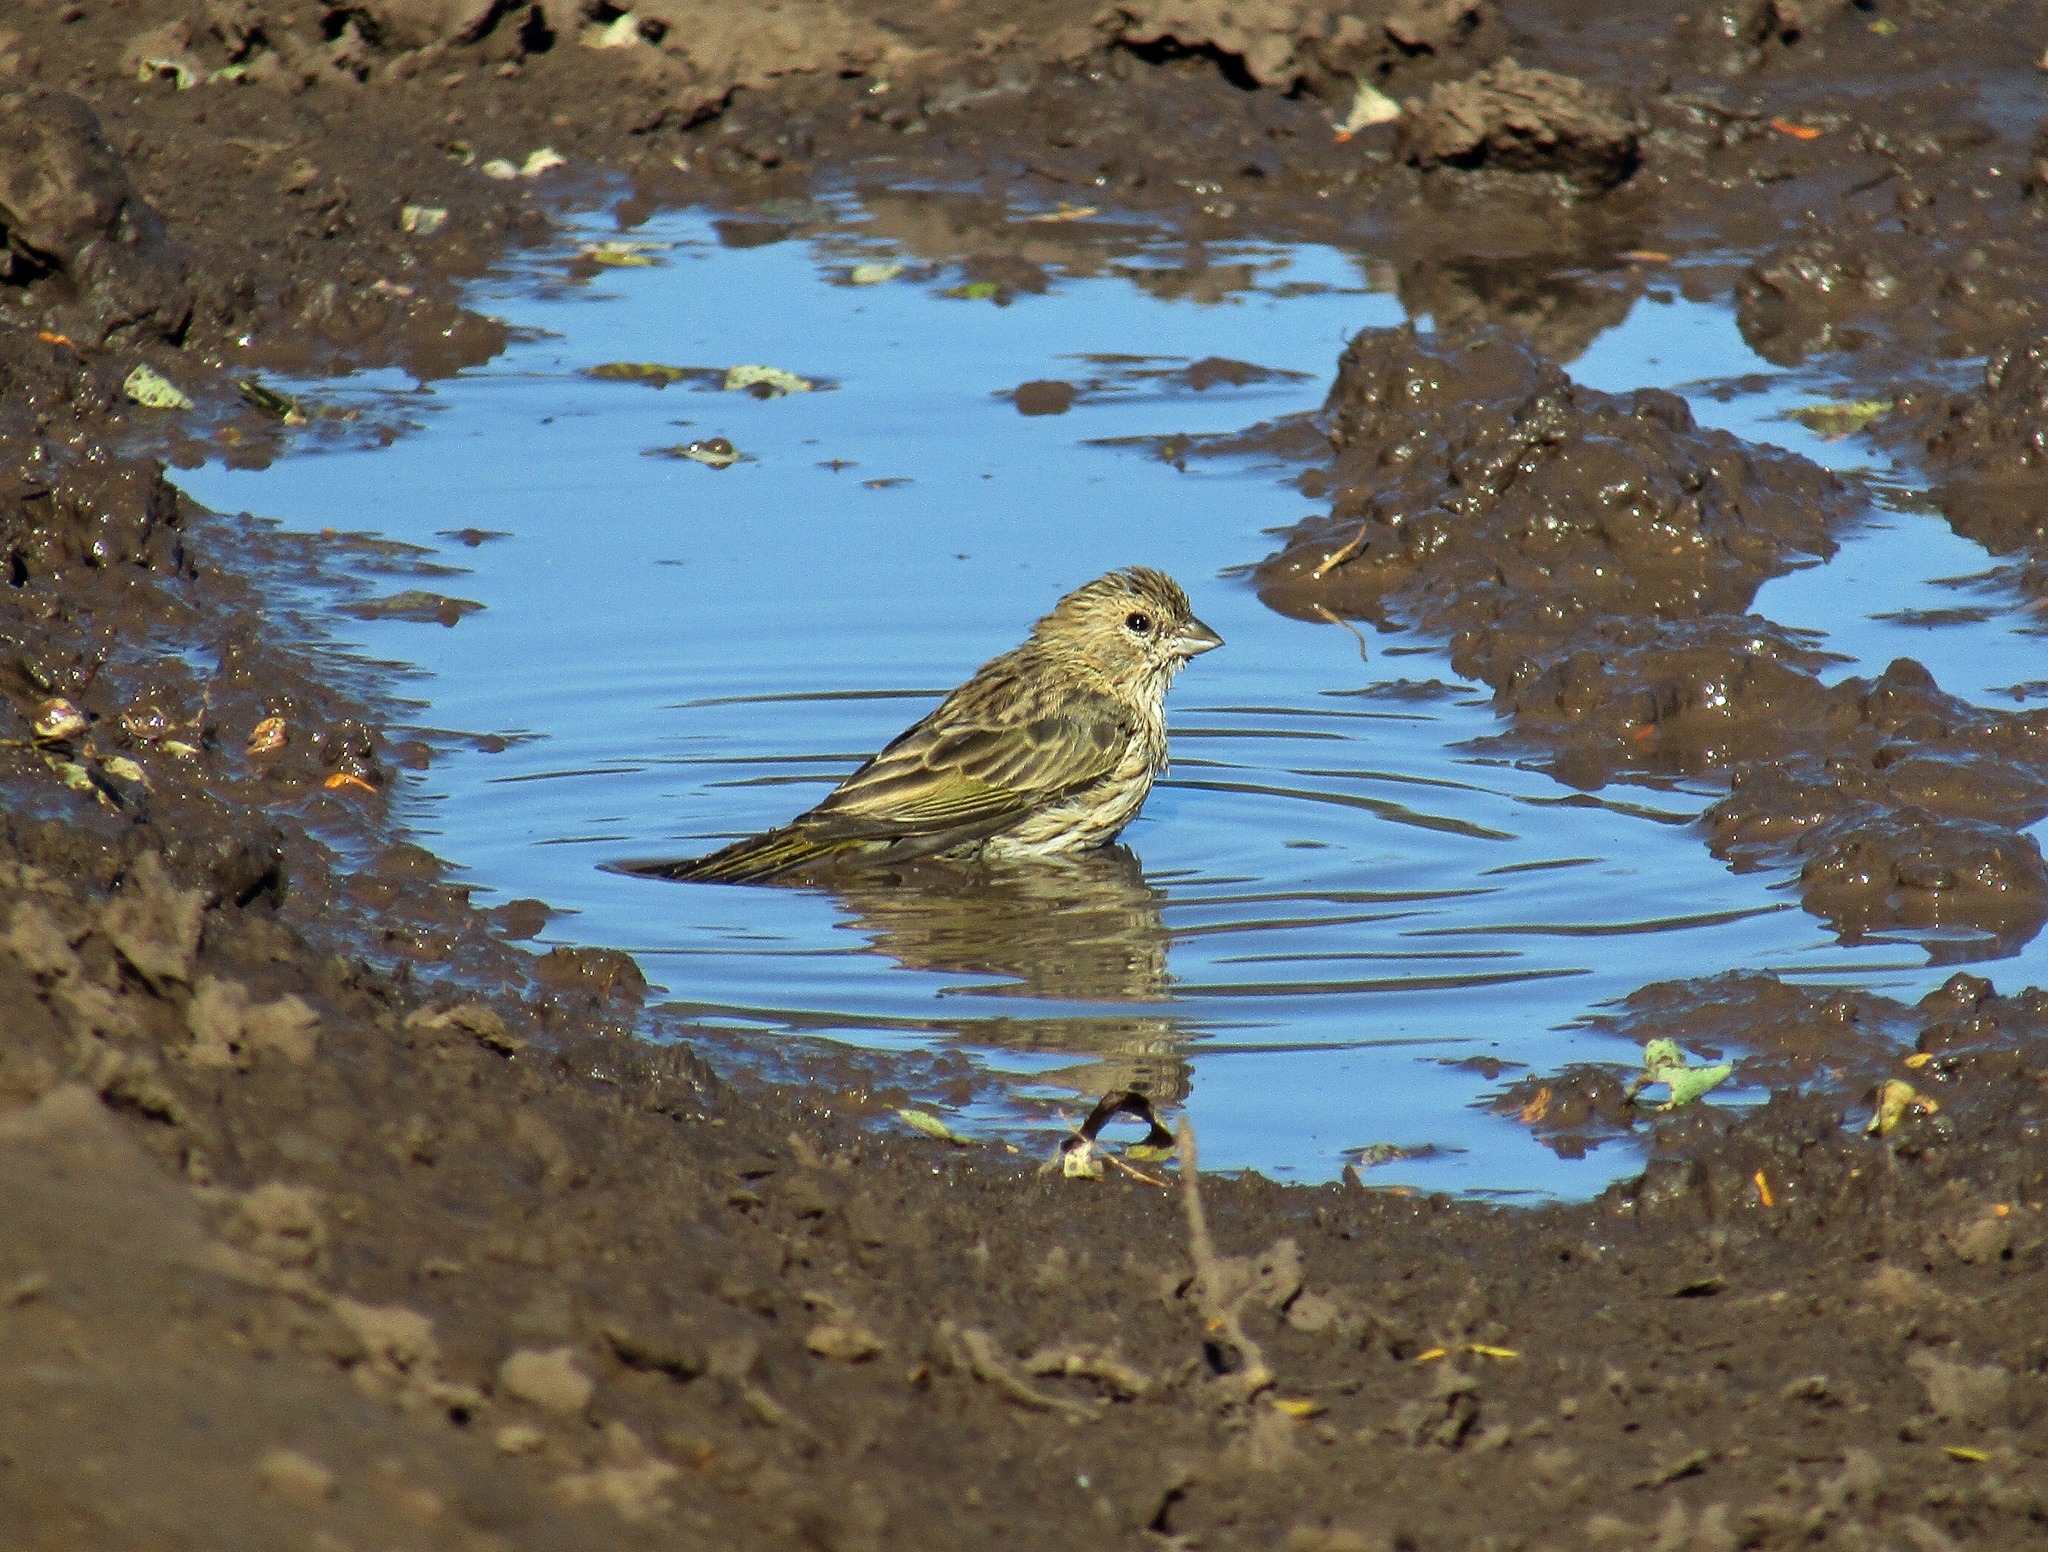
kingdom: Animalia
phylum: Chordata
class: Aves
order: Passeriformes
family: Thraupidae
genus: Sicalis
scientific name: Sicalis flaveola
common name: Saffron finch
